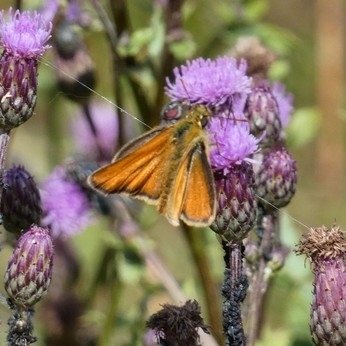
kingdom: Animalia
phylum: Arthropoda
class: Insecta
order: Lepidoptera
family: Hesperiidae
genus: Thymelicus
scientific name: Thymelicus sylvestris
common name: Small skipper
